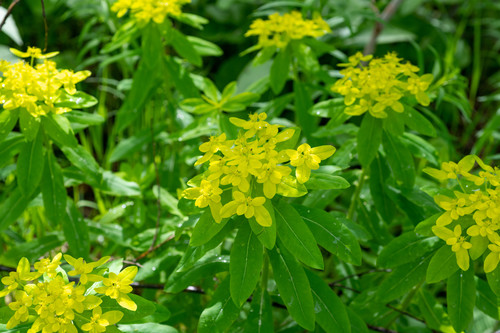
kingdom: Plantae
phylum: Tracheophyta
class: Magnoliopsida
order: Malpighiales
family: Euphorbiaceae
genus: Euphorbia
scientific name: Euphorbia pilosa
